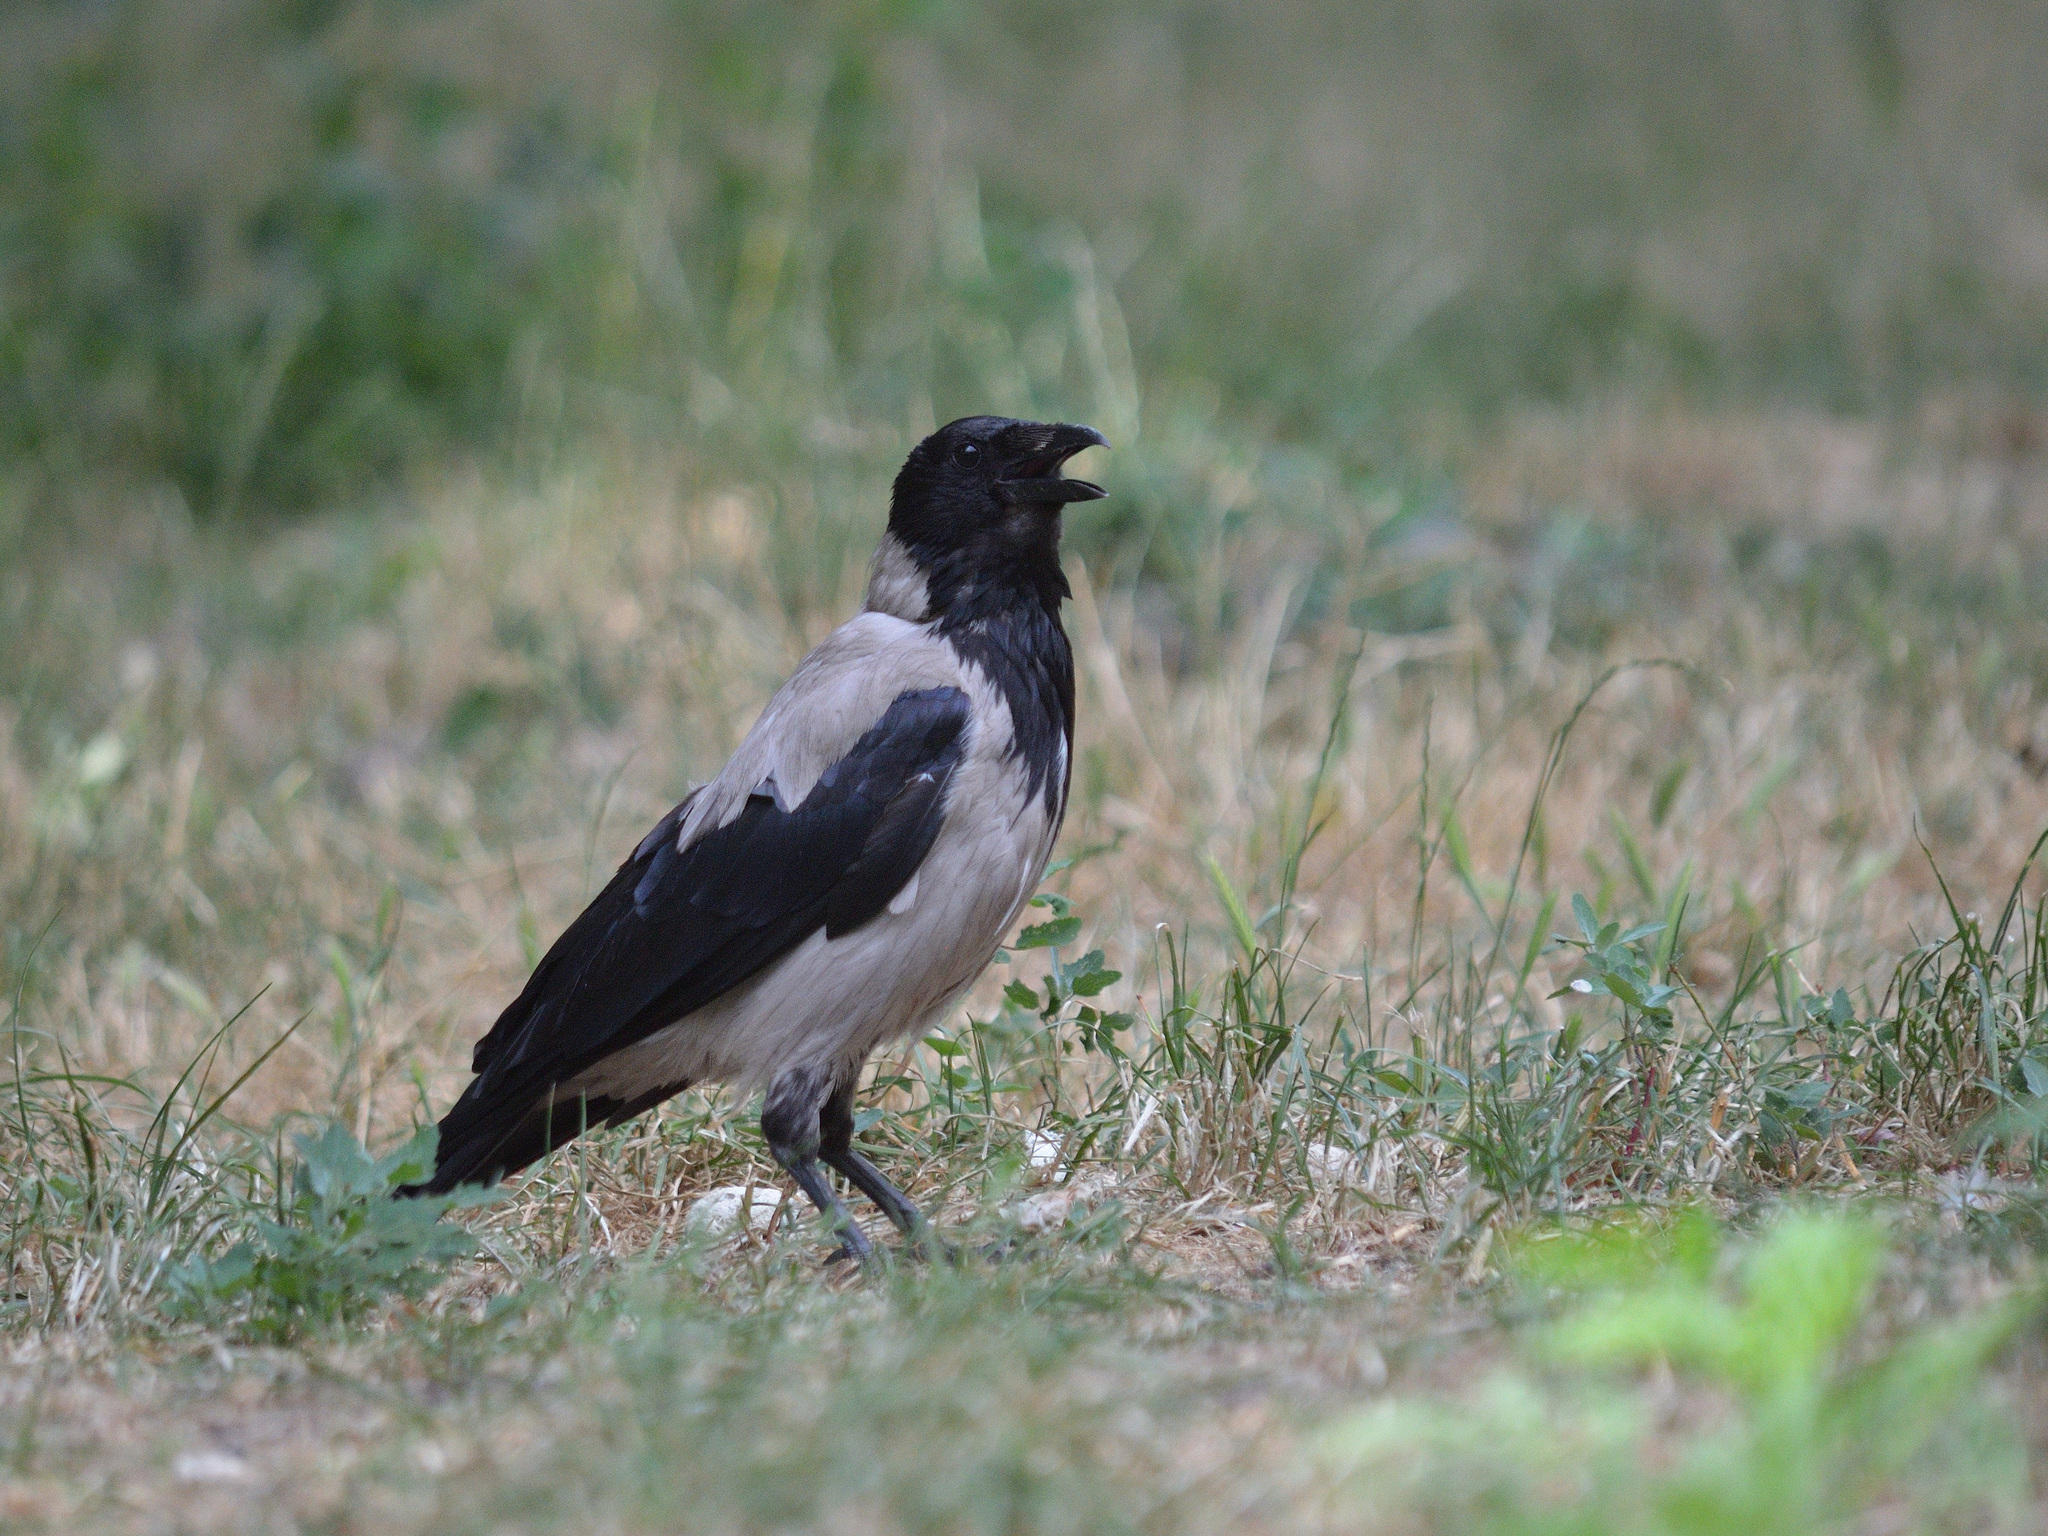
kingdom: Animalia
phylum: Chordata
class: Aves
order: Passeriformes
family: Corvidae
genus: Corvus
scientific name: Corvus cornix
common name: Hooded crow
